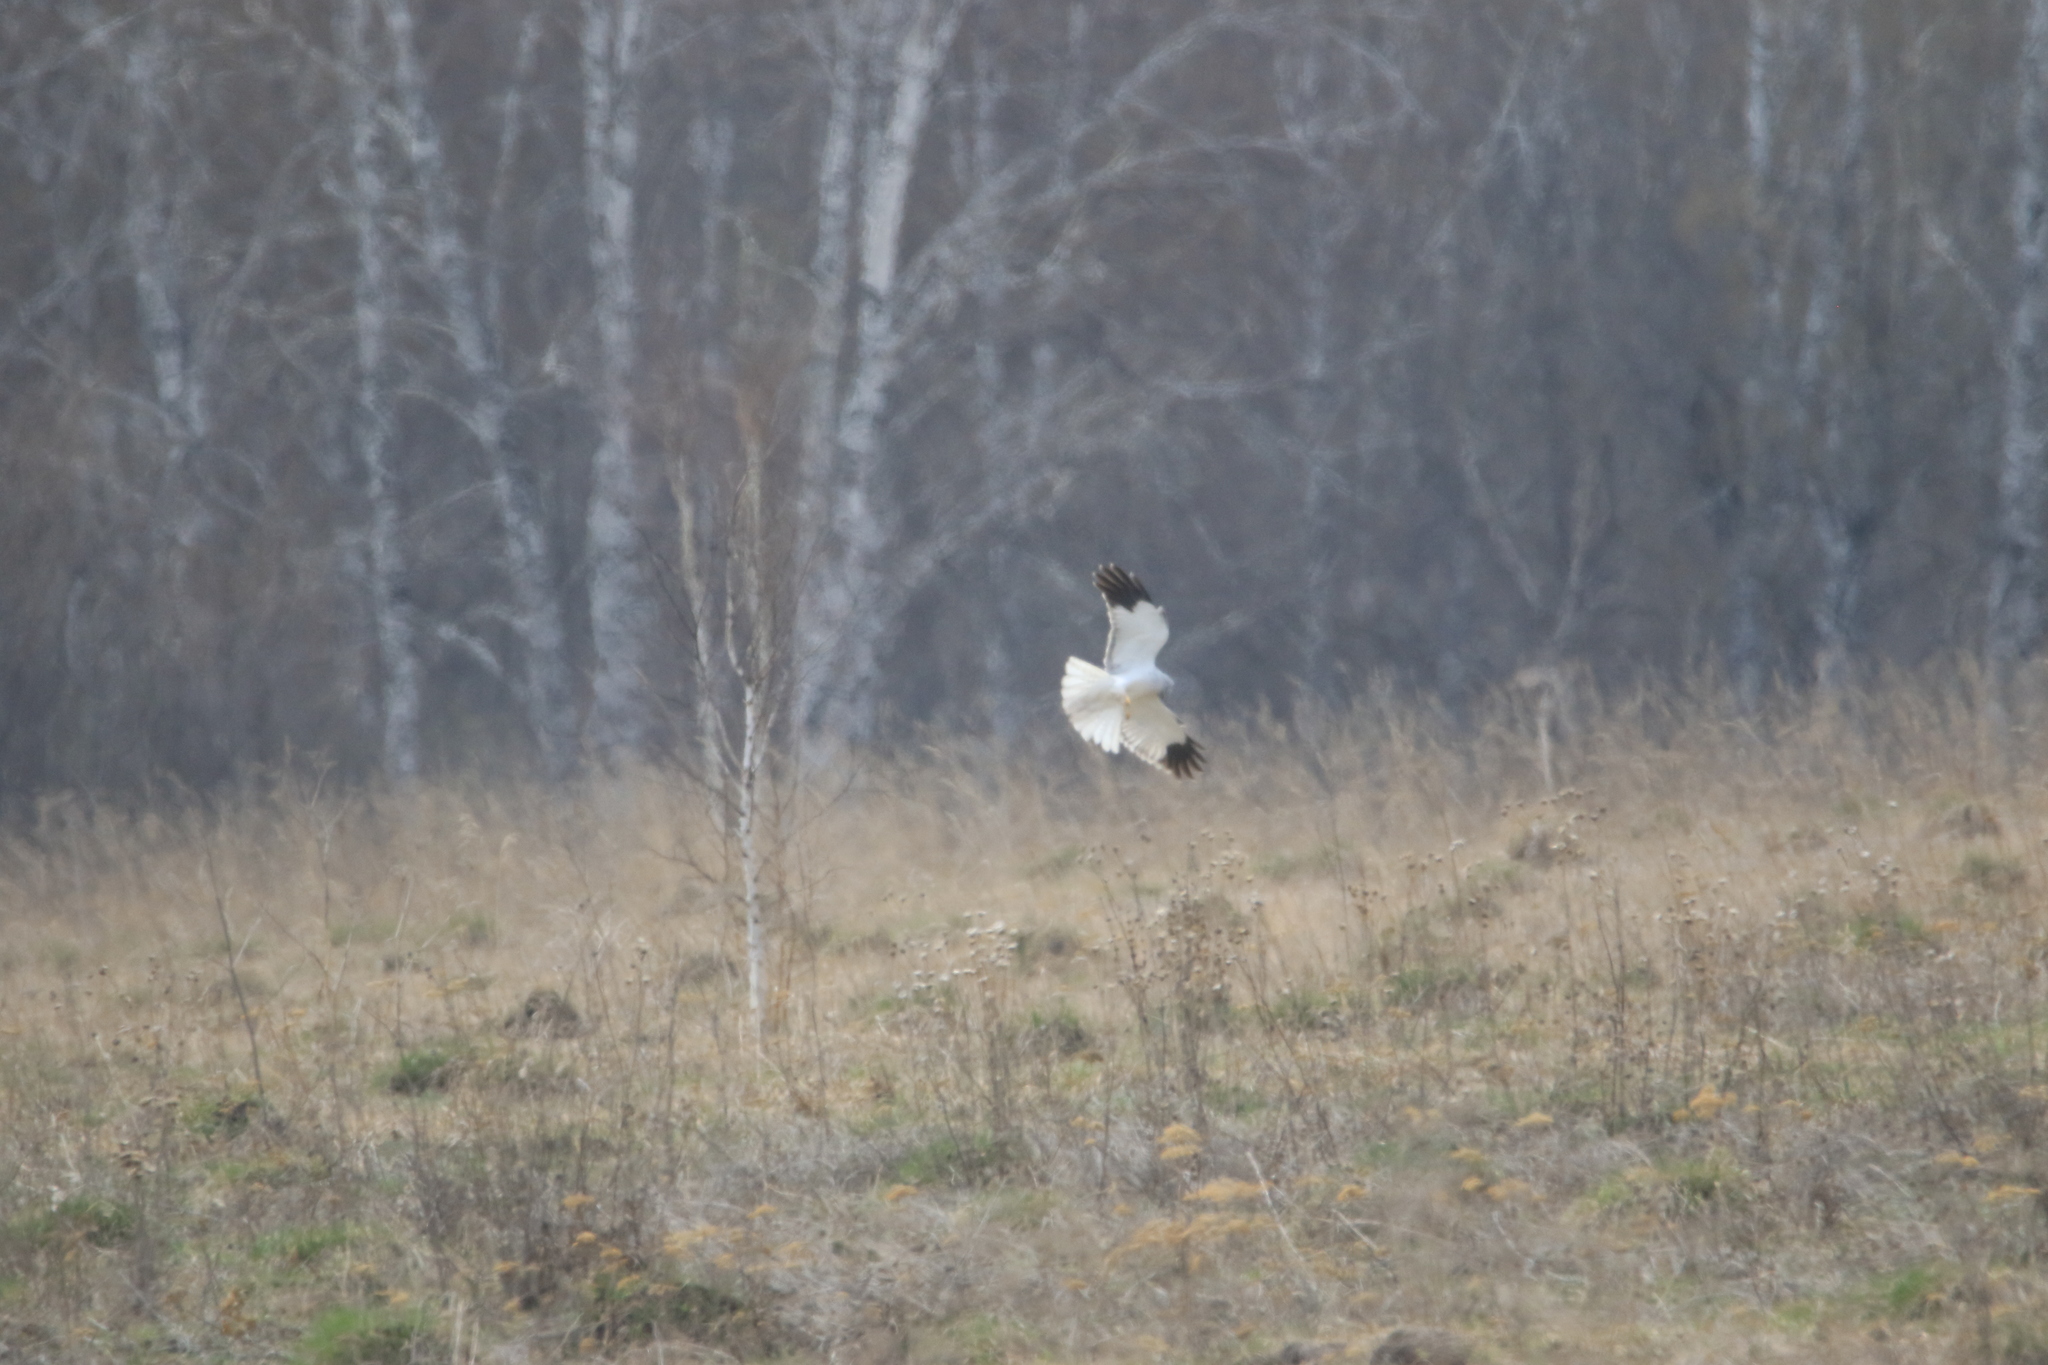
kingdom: Animalia
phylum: Chordata
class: Aves
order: Accipitriformes
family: Accipitridae
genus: Circus
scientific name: Circus cyaneus
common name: Hen harrier
